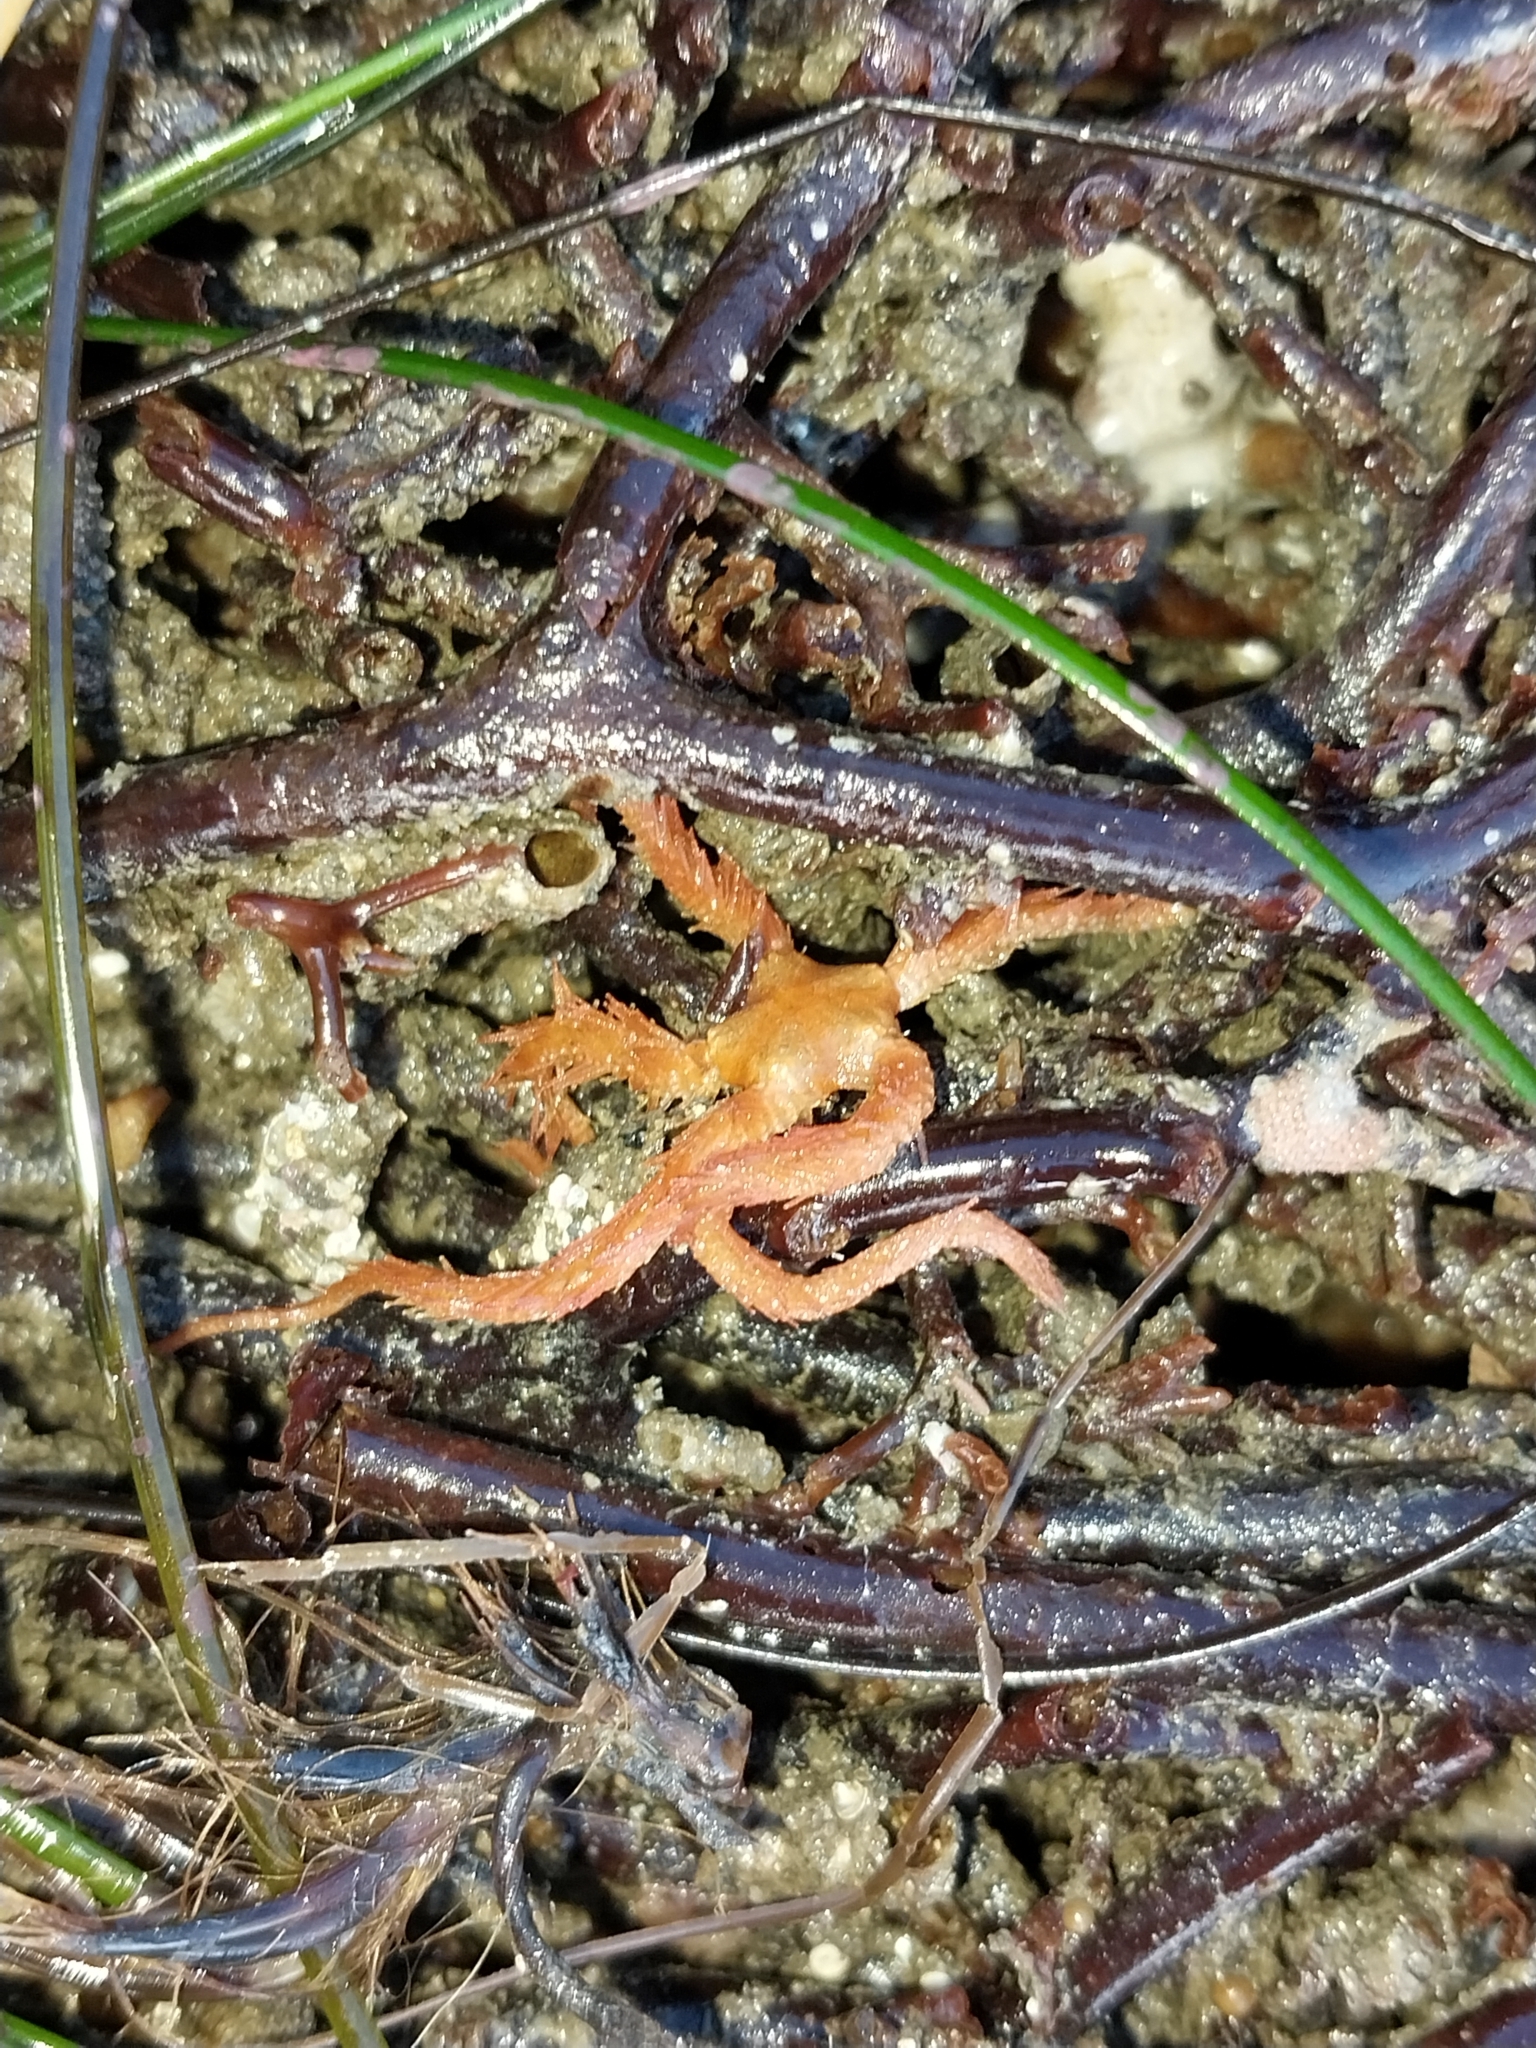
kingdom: Animalia
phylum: Echinodermata
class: Ophiuroidea
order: Amphilepidida
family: Ophiotrichidae
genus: Ophiothrix
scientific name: Ophiothrix spiculata
